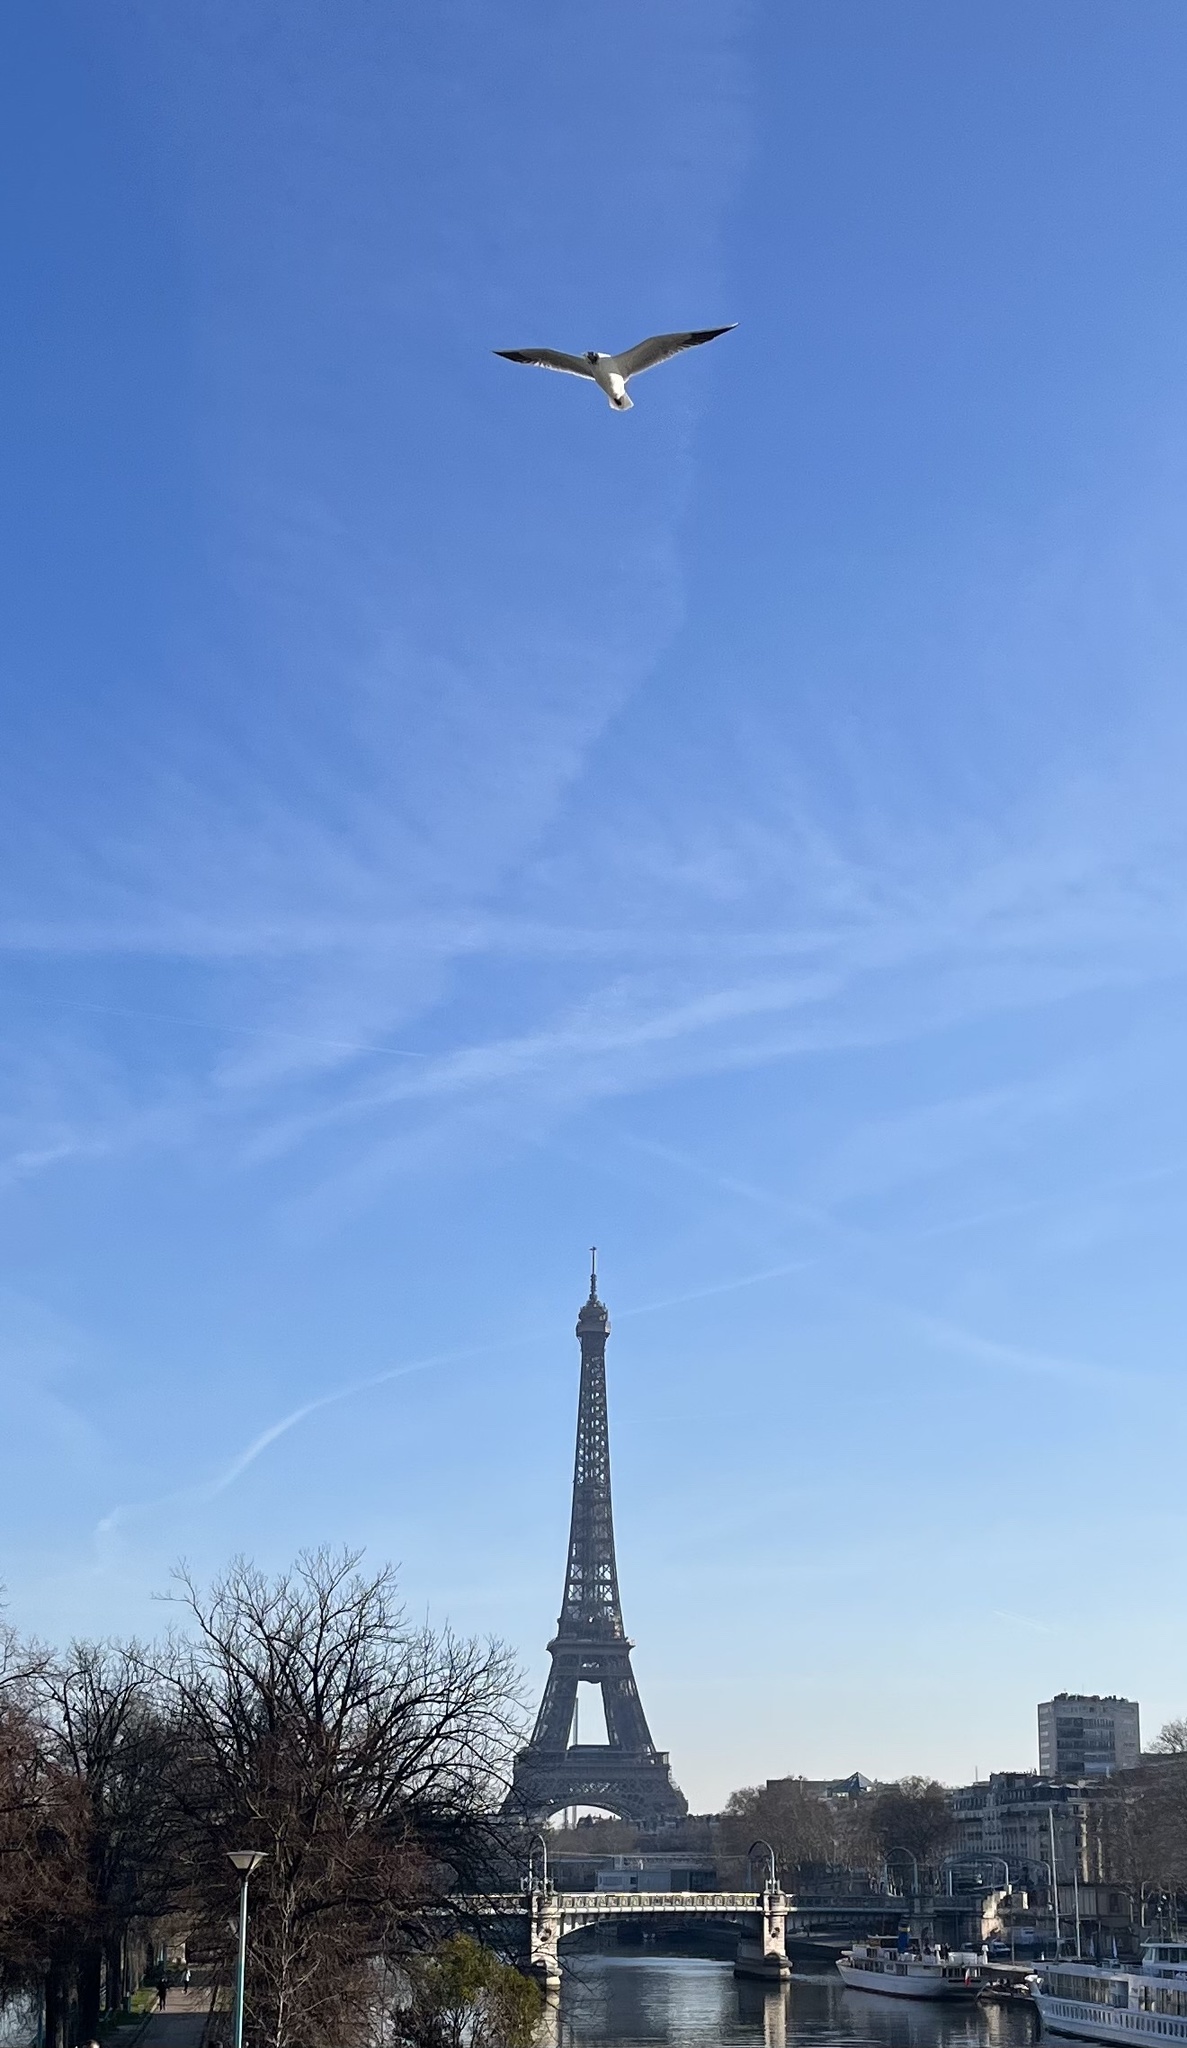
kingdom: Animalia
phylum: Chordata
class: Aves
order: Charadriiformes
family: Laridae
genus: Chroicocephalus
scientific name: Chroicocephalus ridibundus
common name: Black-headed gull
